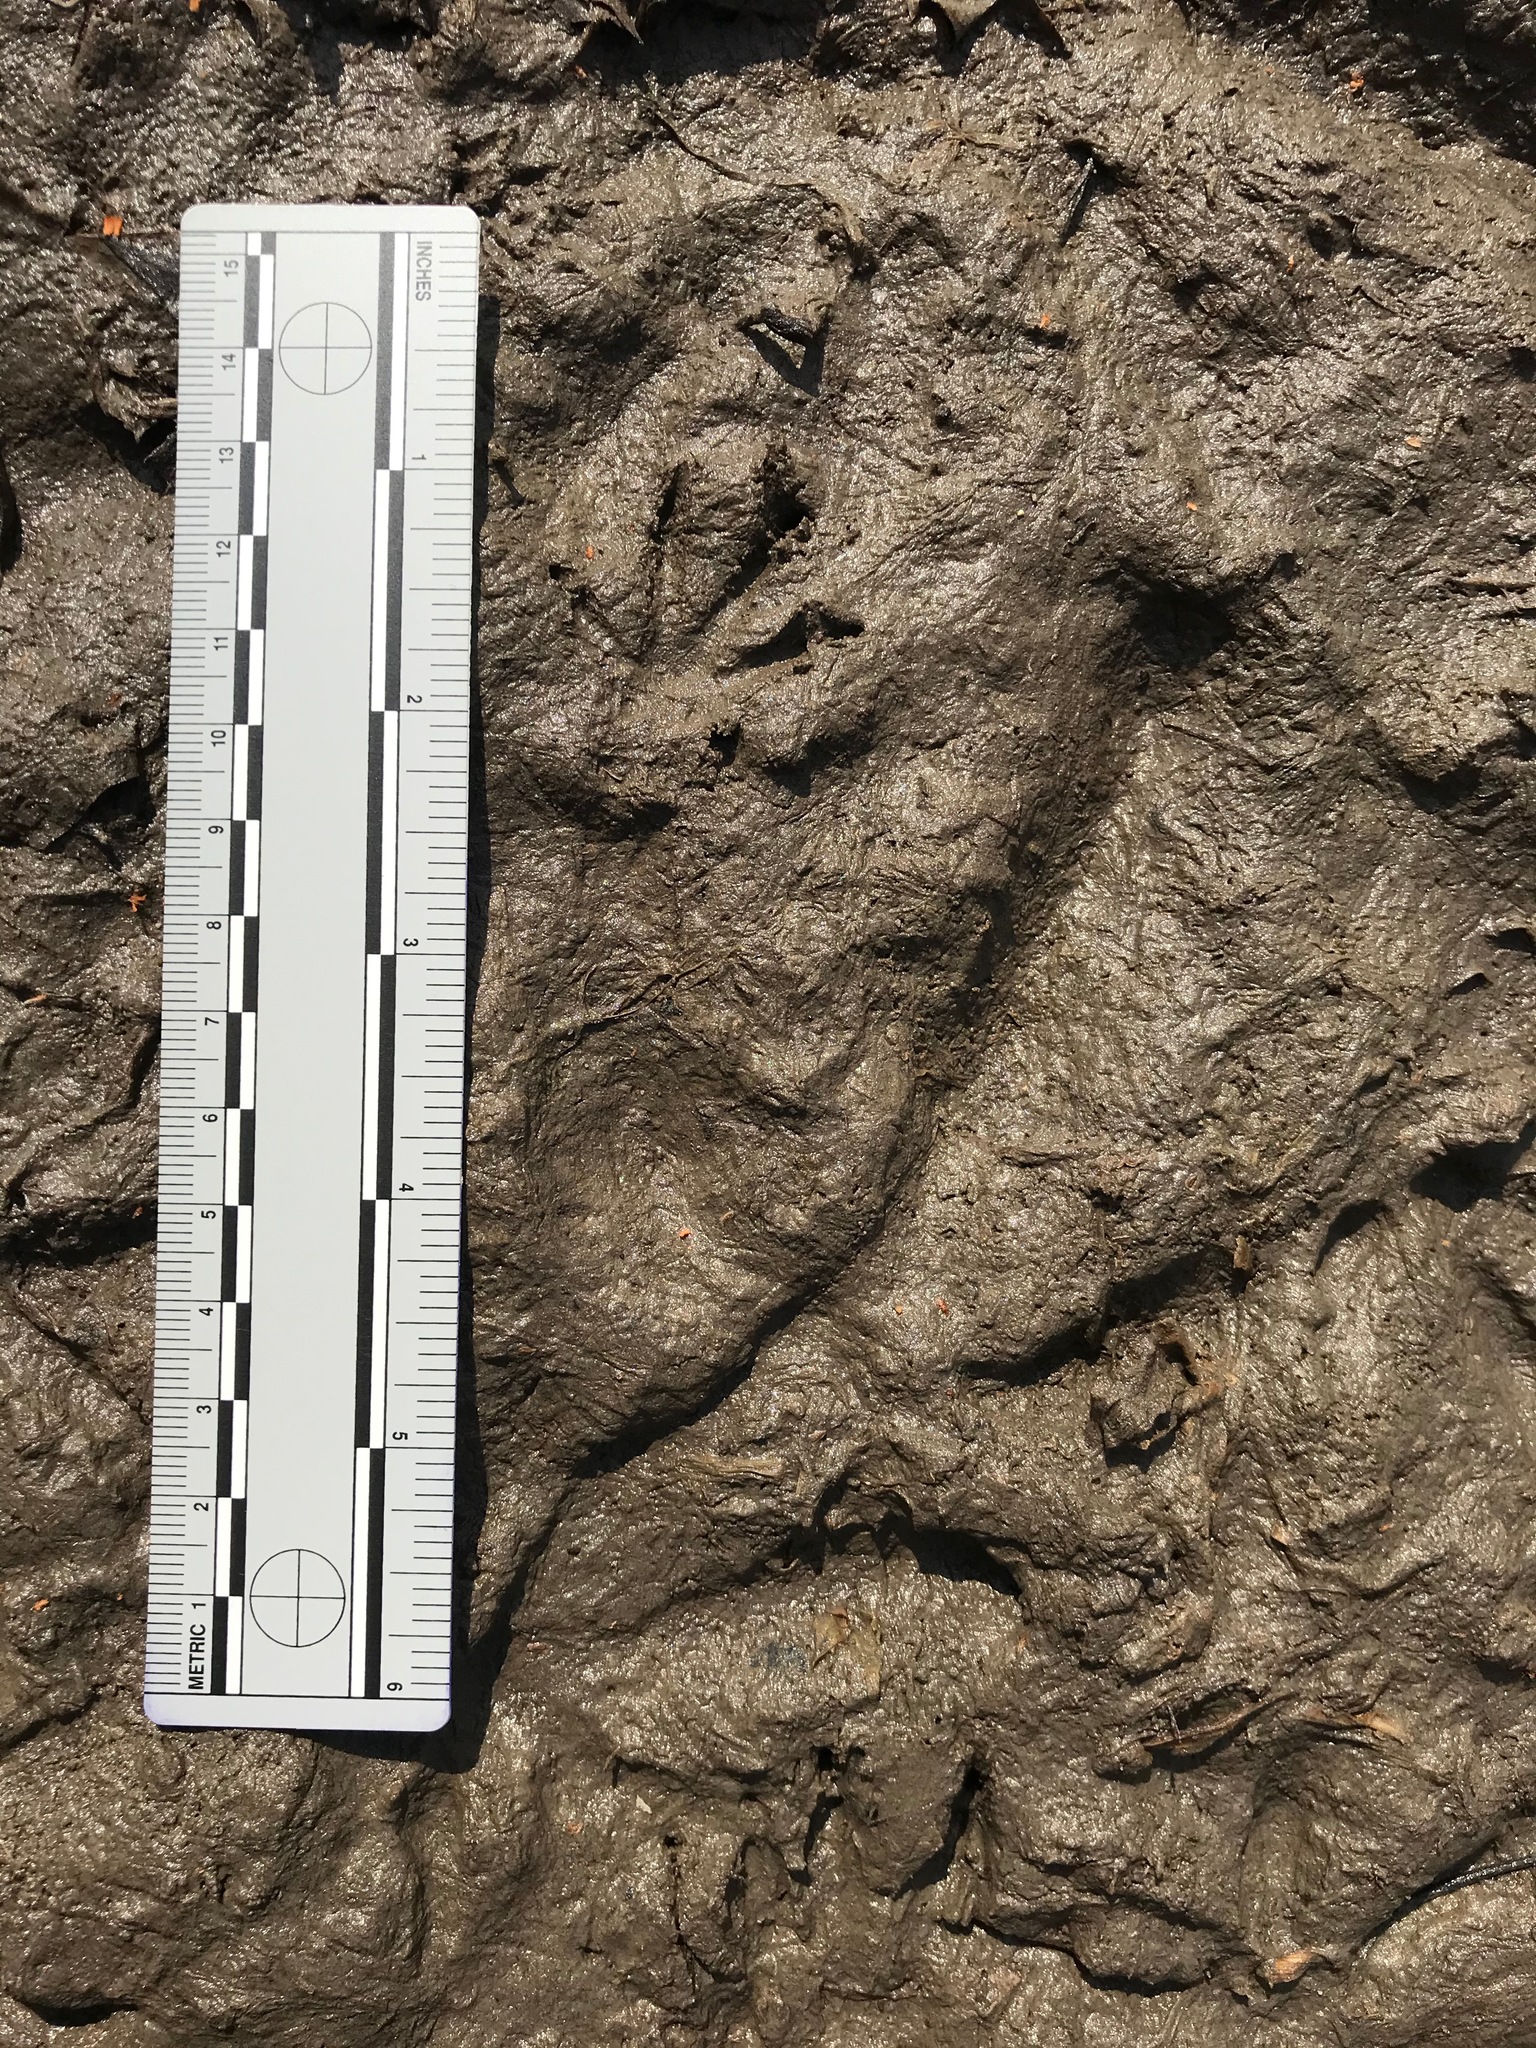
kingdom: Animalia
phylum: Chordata
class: Mammalia
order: Rodentia
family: Cricetidae
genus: Ondatra
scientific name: Ondatra zibethicus
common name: Muskrat
